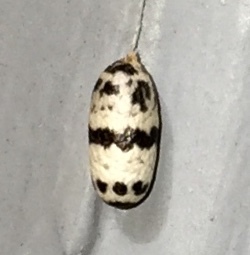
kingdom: Animalia
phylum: Arthropoda
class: Insecta
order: Hymenoptera
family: Ichneumonidae
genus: Charops
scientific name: Charops annulipes
